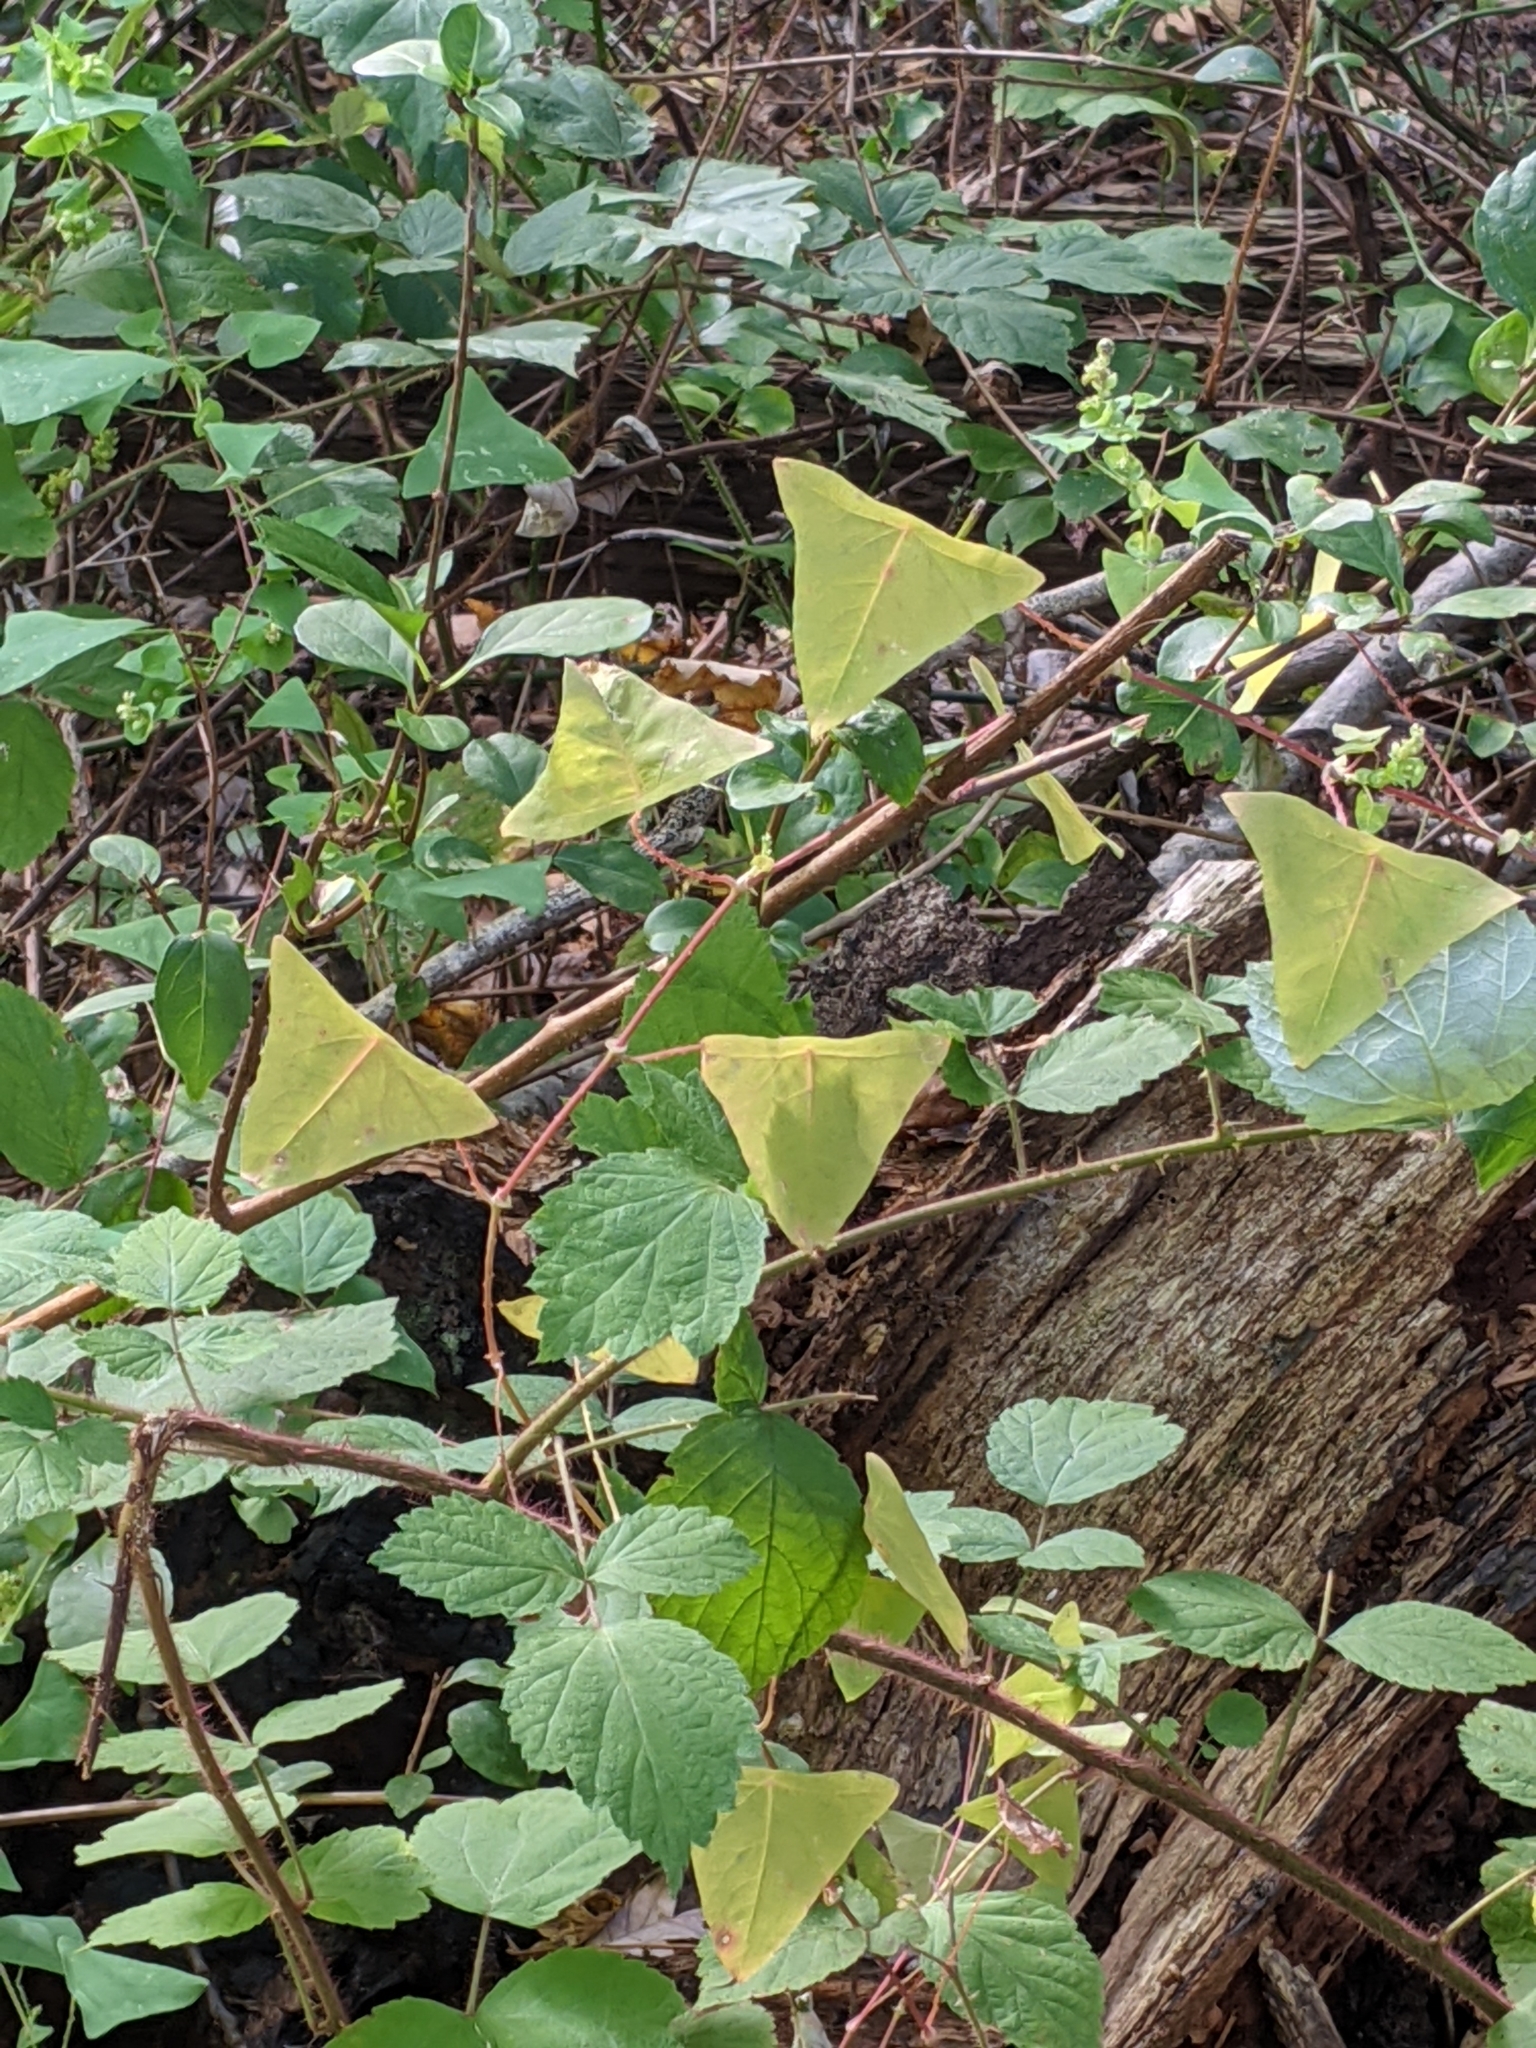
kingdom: Plantae
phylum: Tracheophyta
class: Magnoliopsida
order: Caryophyllales
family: Polygonaceae
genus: Persicaria
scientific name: Persicaria perfoliata
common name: Asiatic tearthumb
